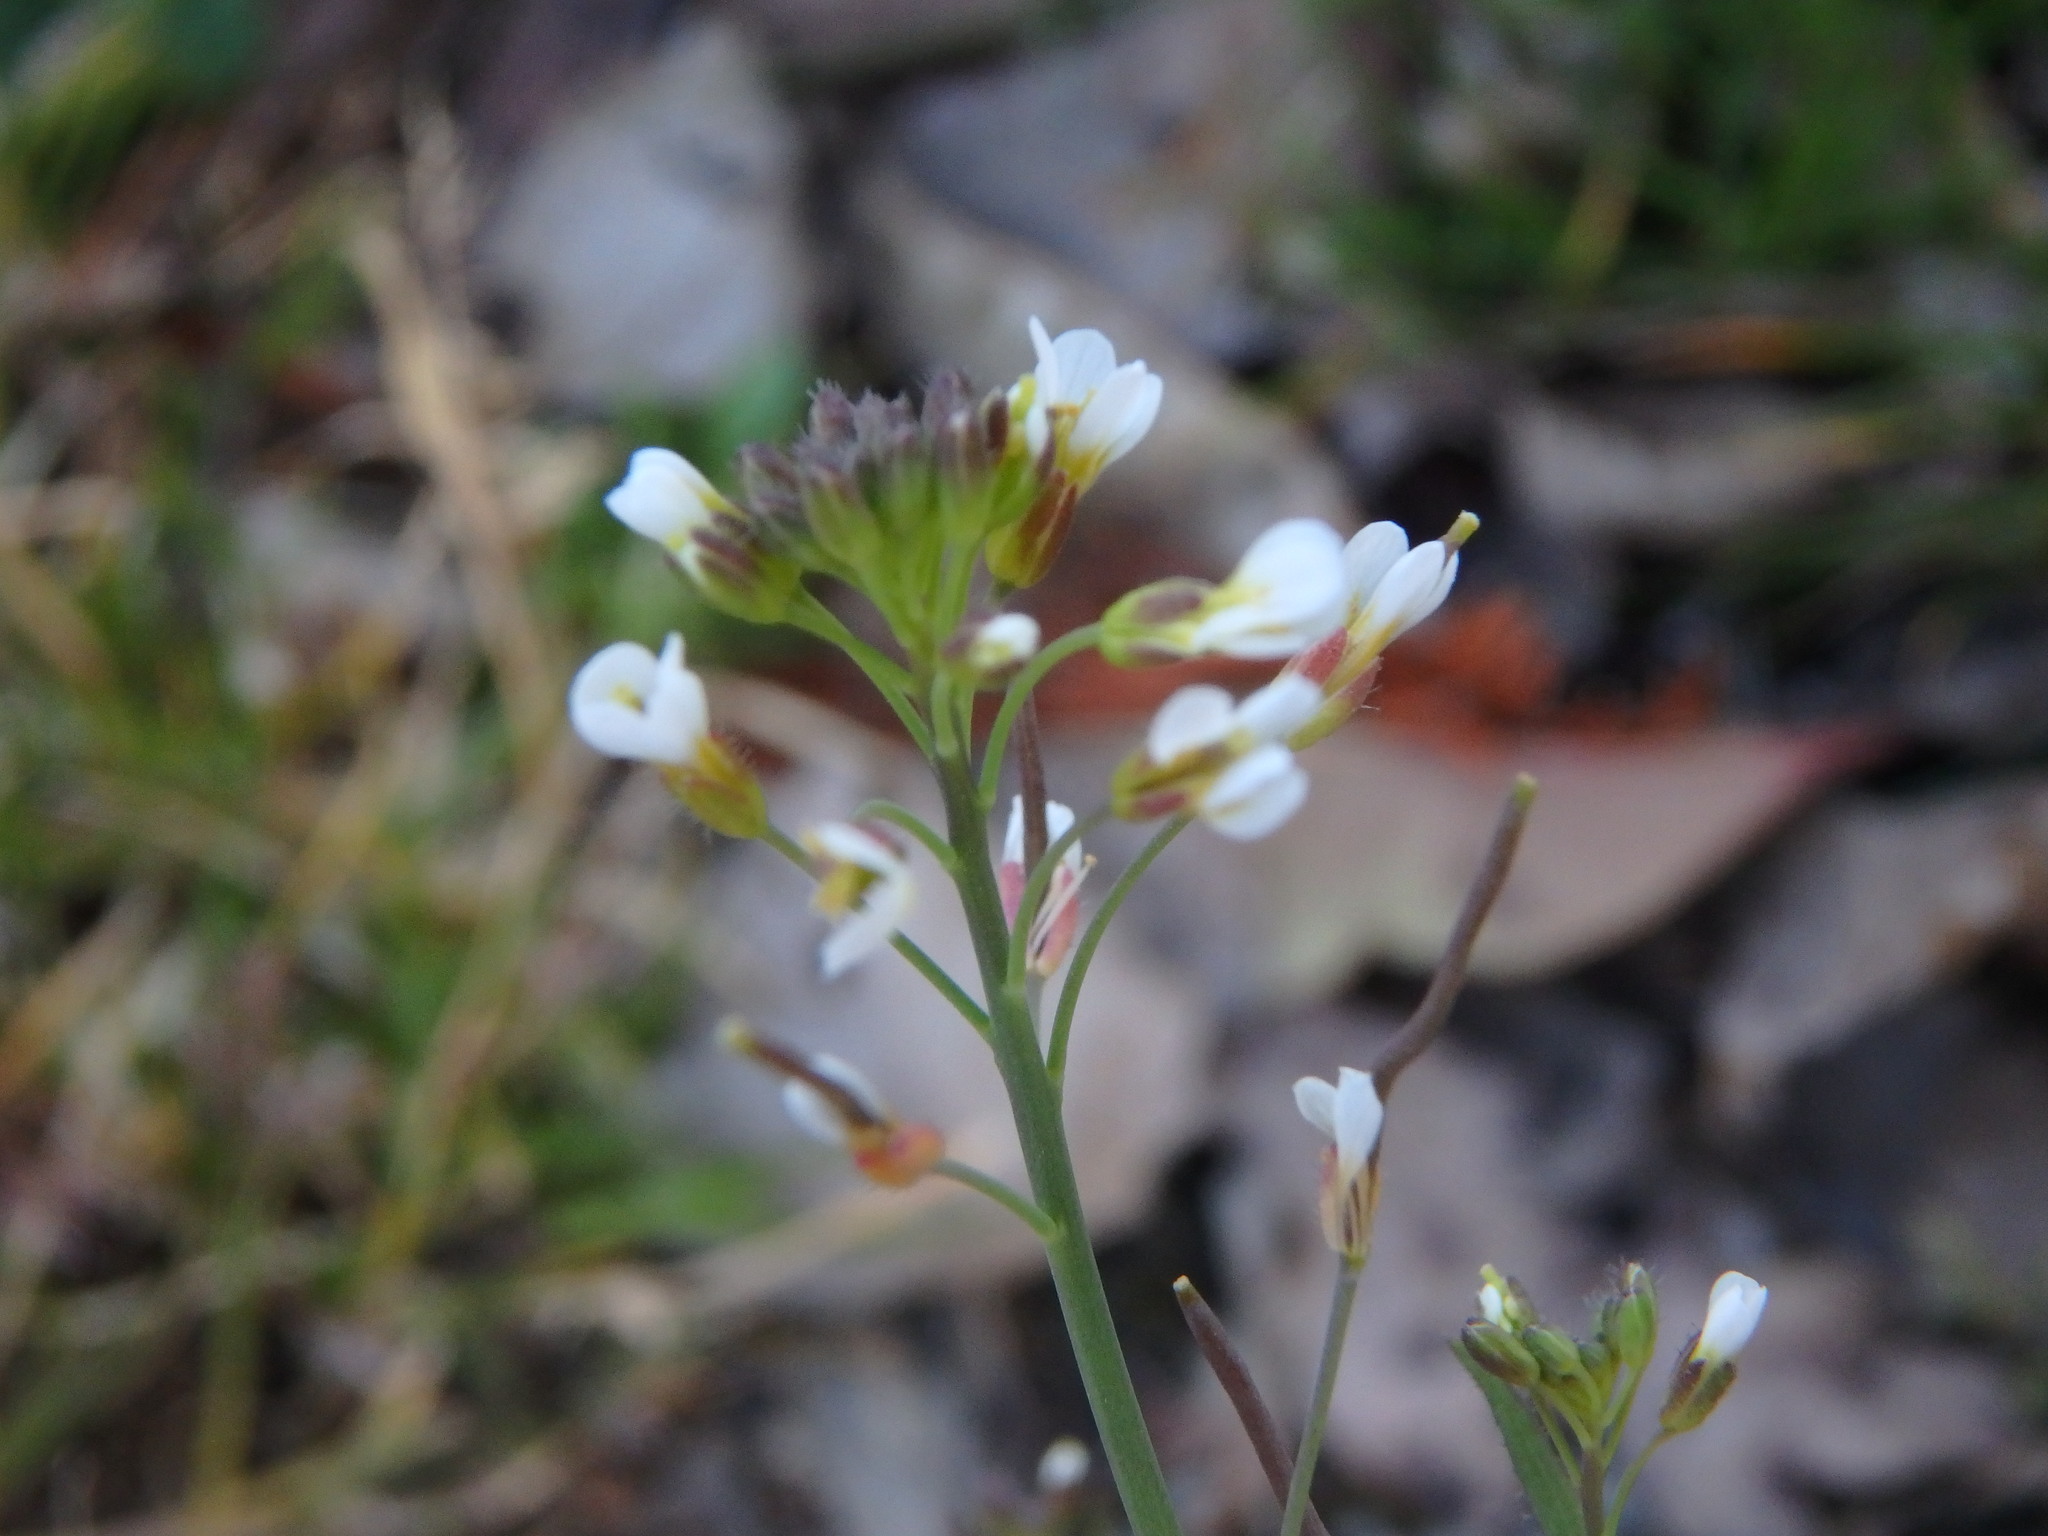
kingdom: Plantae
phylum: Tracheophyta
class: Magnoliopsida
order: Brassicales
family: Brassicaceae
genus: Arabidopsis
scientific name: Arabidopsis thaliana
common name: Thale cress
